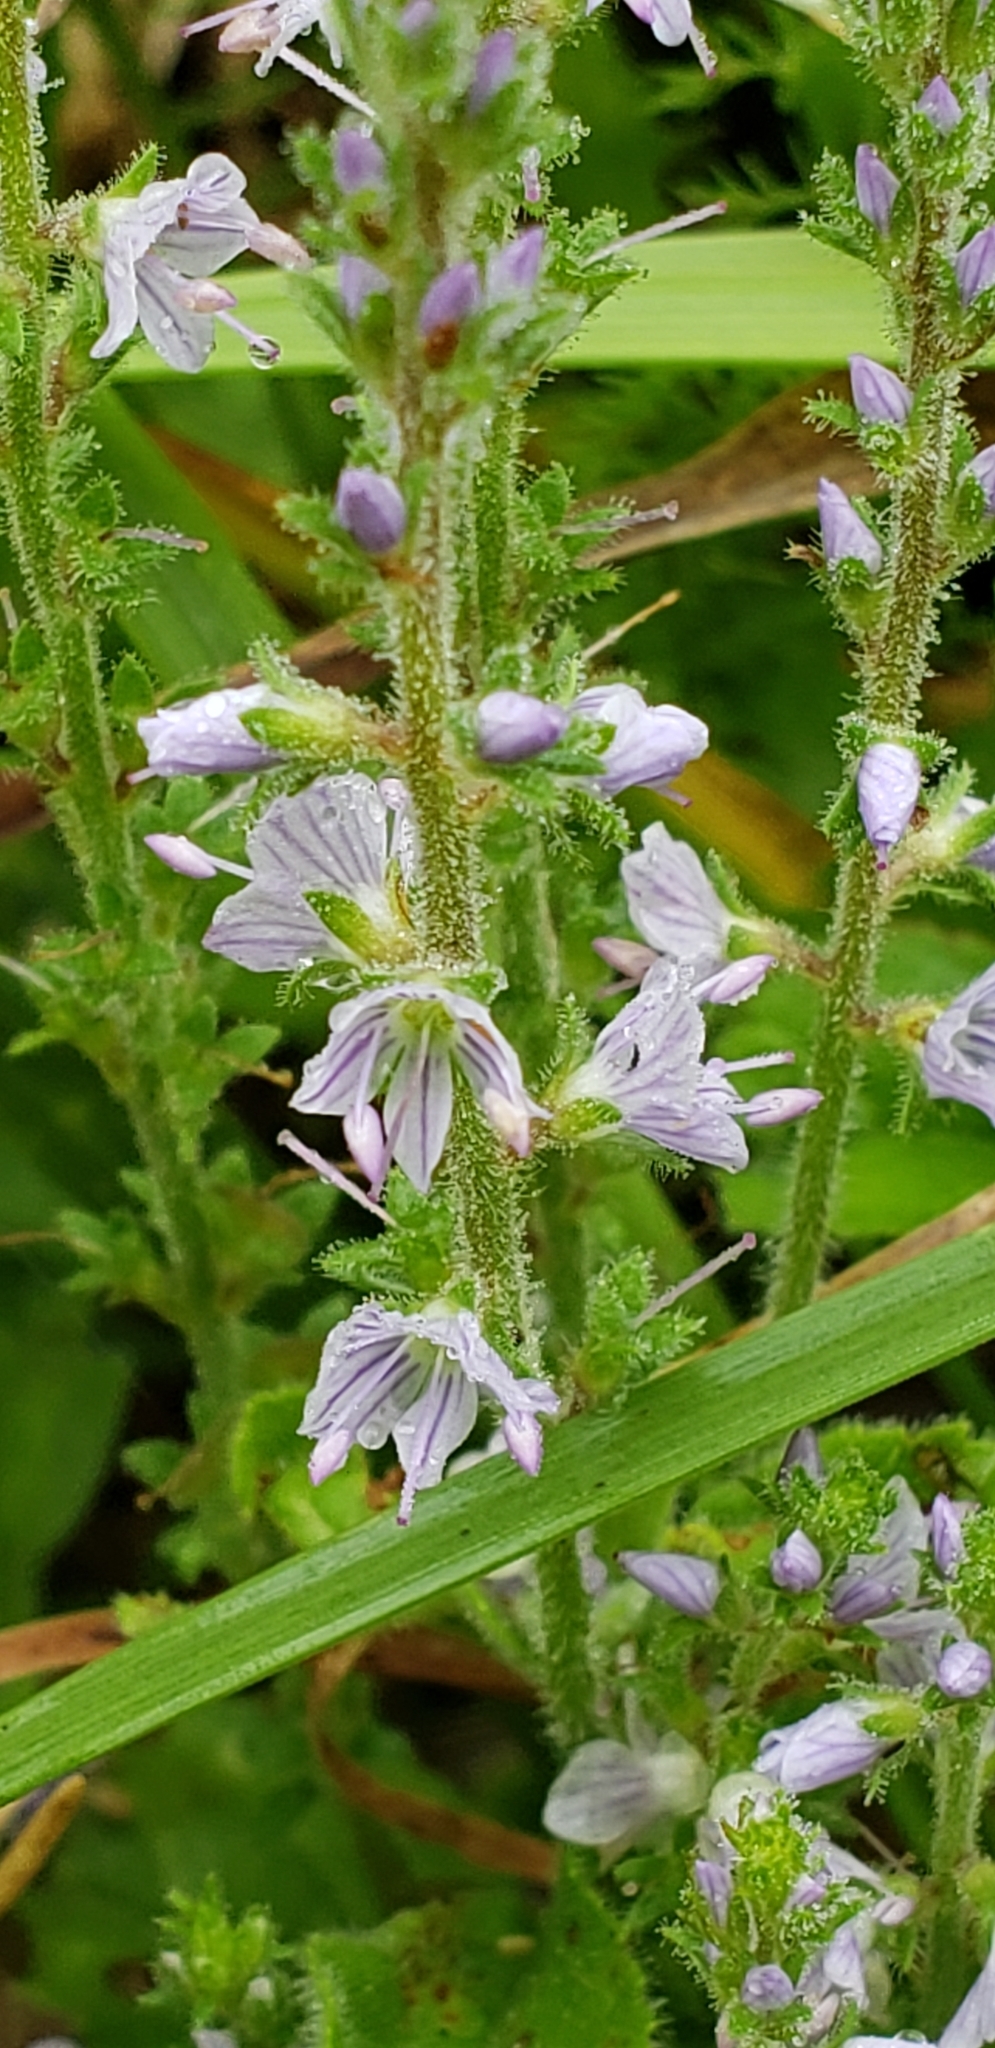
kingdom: Plantae
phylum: Tracheophyta
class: Magnoliopsida
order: Lamiales
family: Plantaginaceae
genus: Veronica
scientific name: Veronica officinalis
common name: Common speedwell
